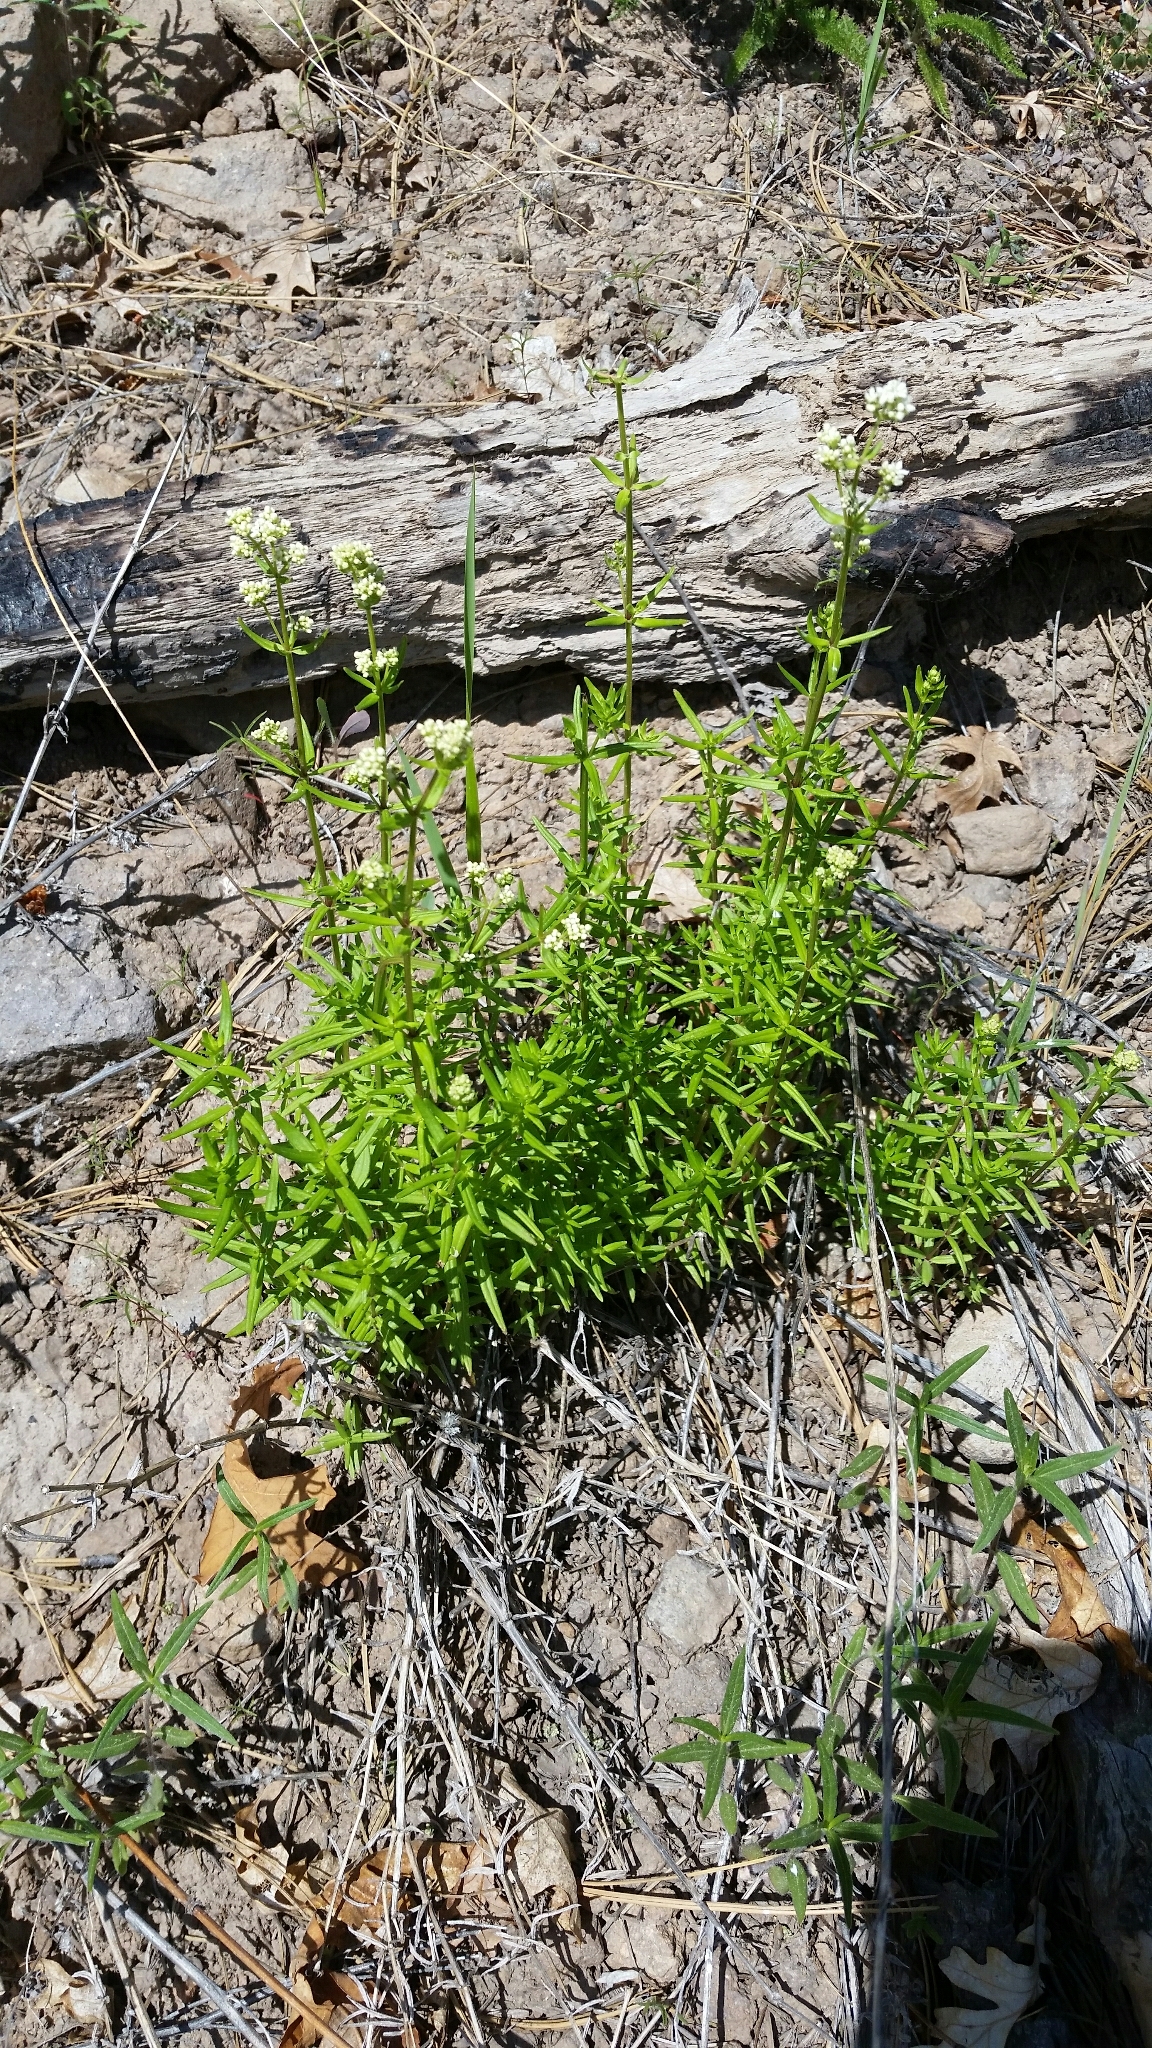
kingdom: Plantae
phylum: Tracheophyta
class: Magnoliopsida
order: Gentianales
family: Rubiaceae
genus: Galium
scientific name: Galium boreale
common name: Northern bedstraw
